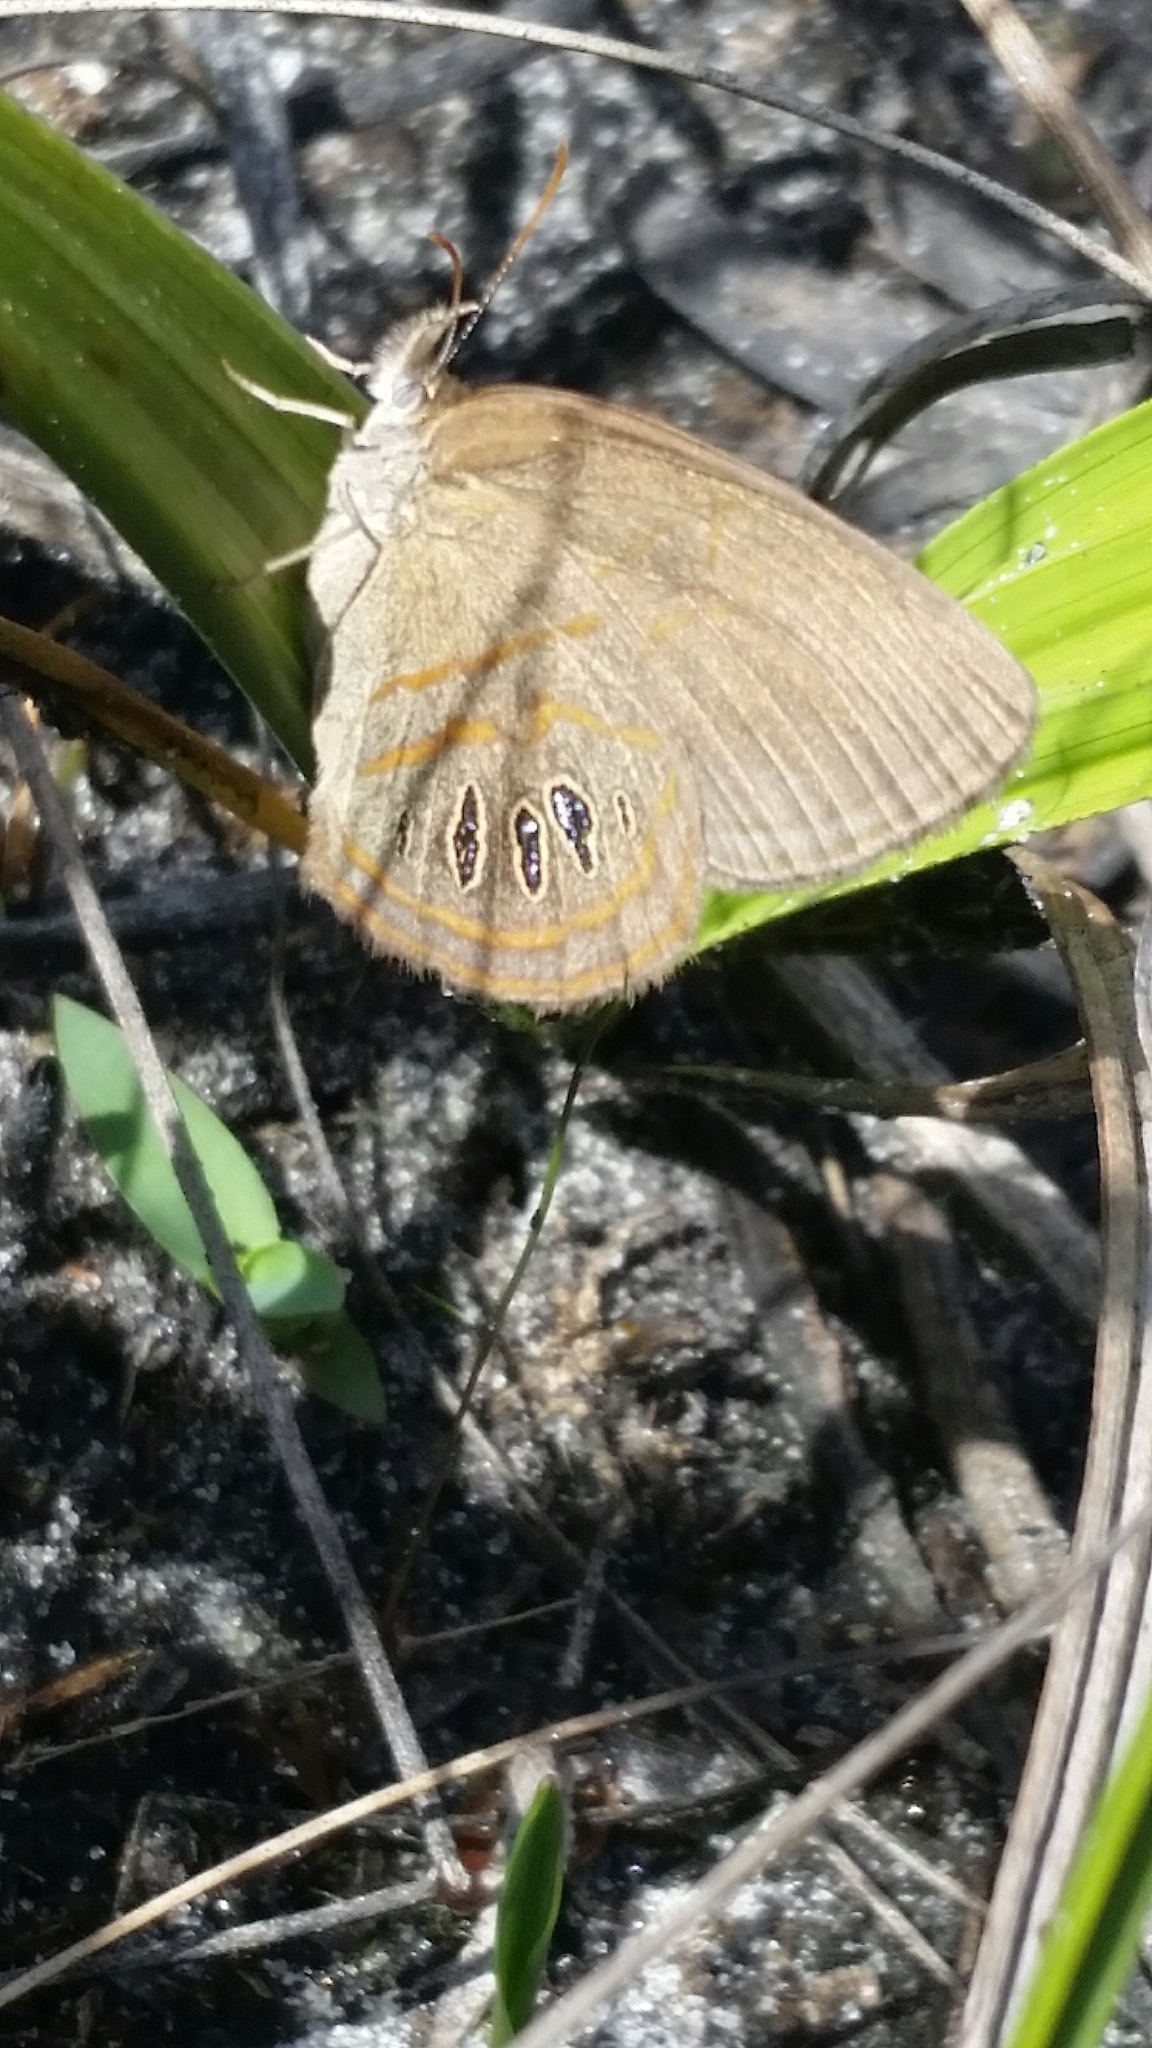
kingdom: Animalia
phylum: Arthropoda
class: Insecta
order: Lepidoptera
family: Nymphalidae
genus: Euptychia
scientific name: Euptychia phocion
